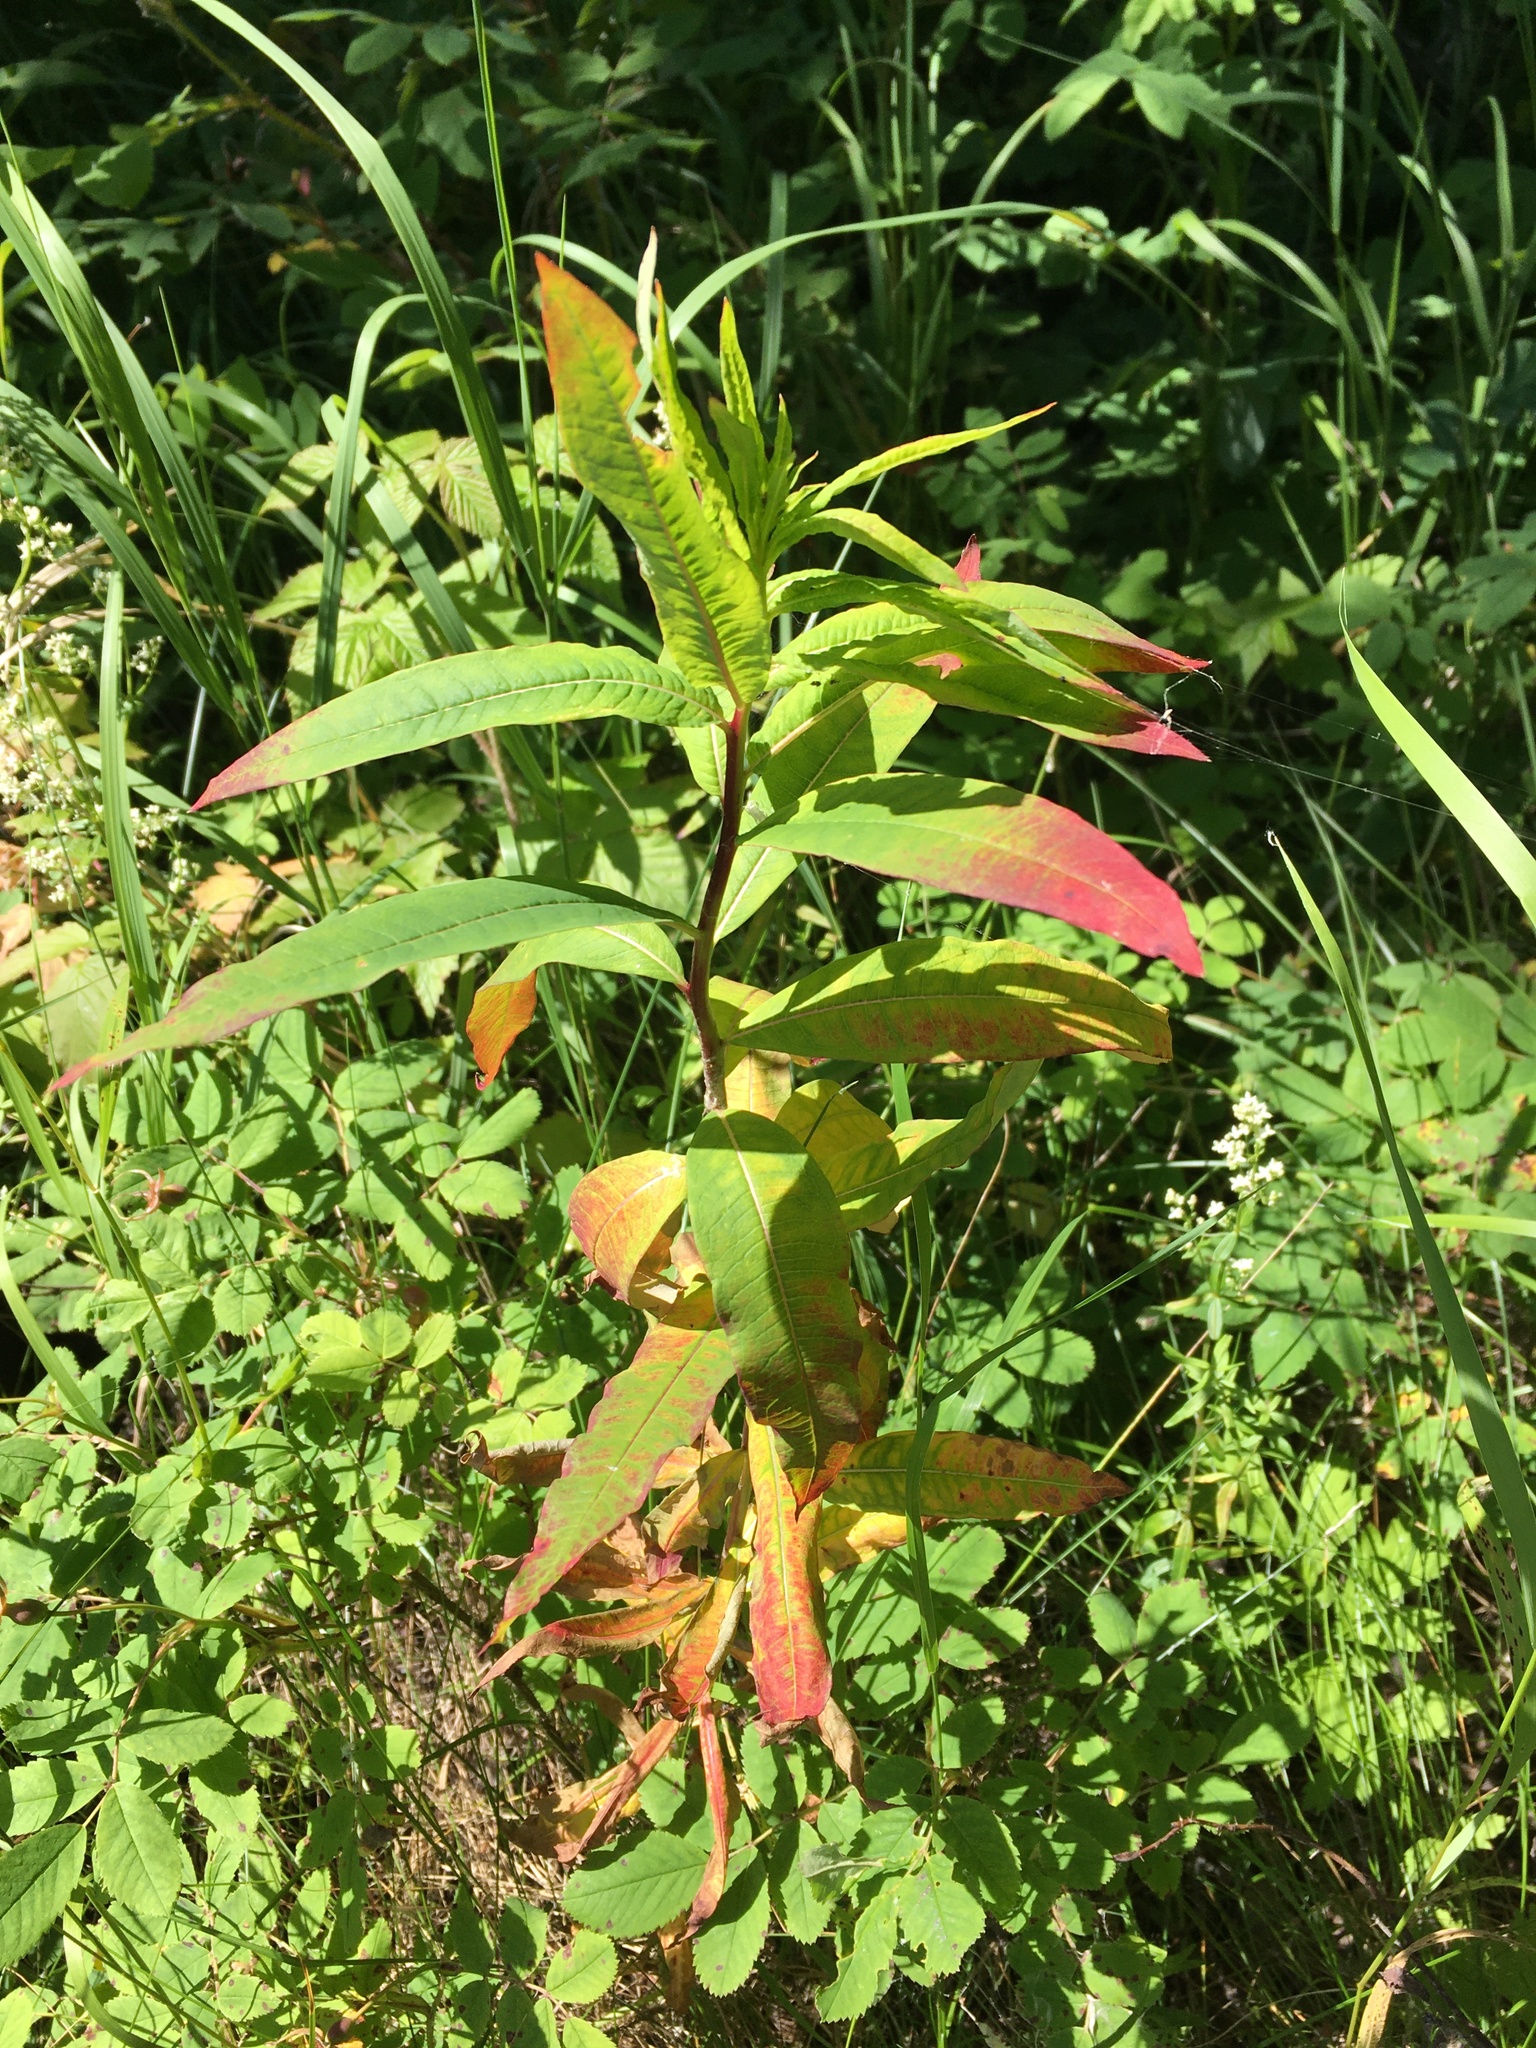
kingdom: Plantae
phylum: Tracheophyta
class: Magnoliopsida
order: Myrtales
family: Onagraceae
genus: Chamaenerion
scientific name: Chamaenerion angustifolium
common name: Fireweed
